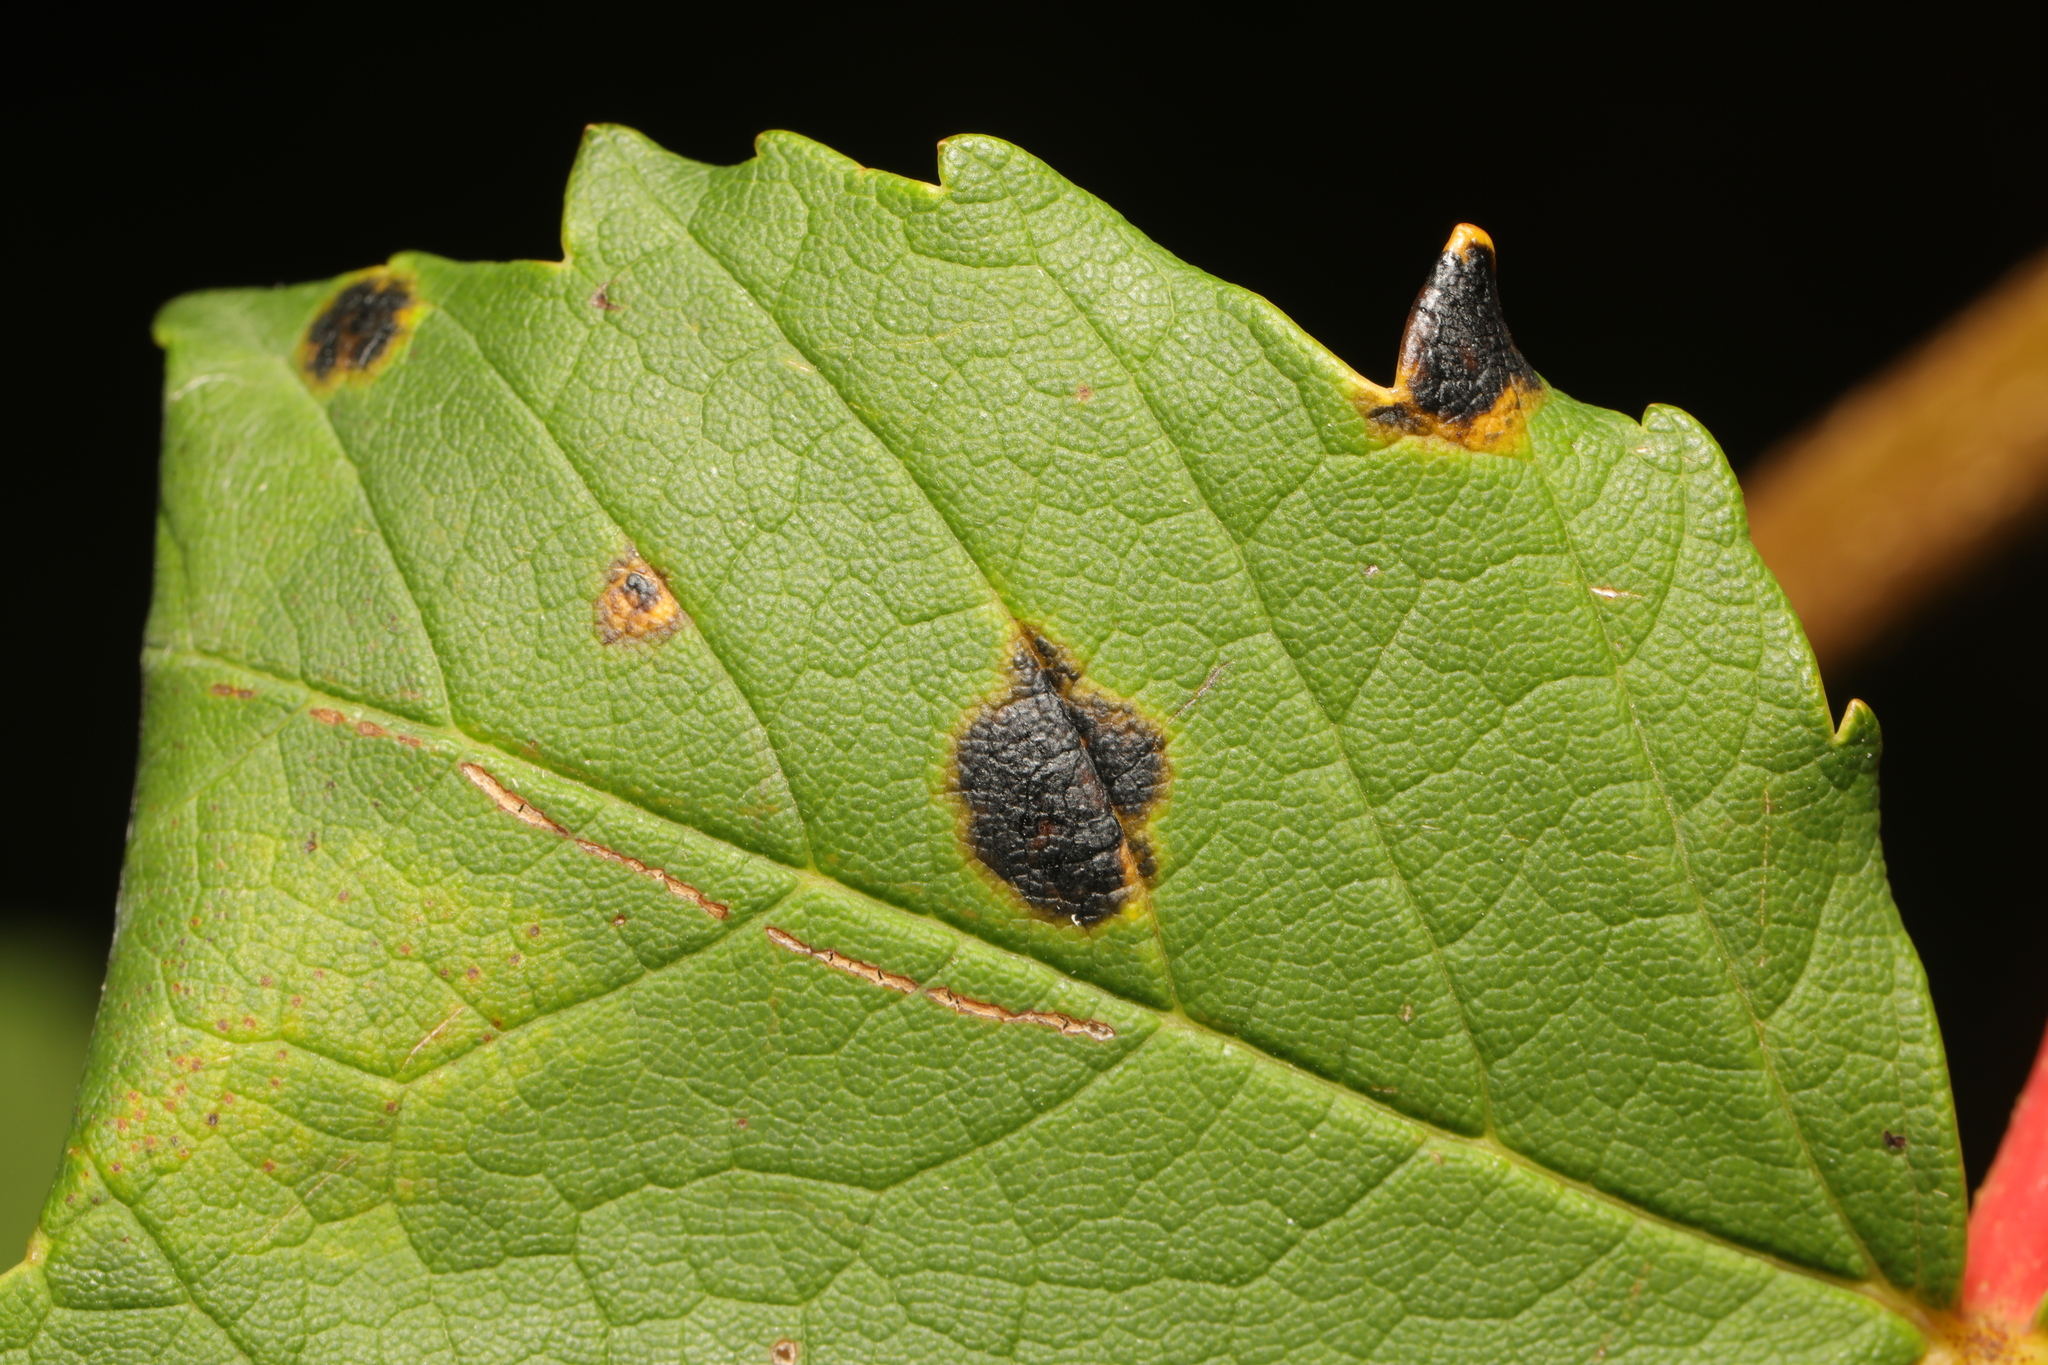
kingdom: Fungi
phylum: Ascomycota
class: Leotiomycetes
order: Rhytismatales
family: Rhytismataceae
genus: Rhytisma
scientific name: Rhytisma acerinum
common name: European tar spot
